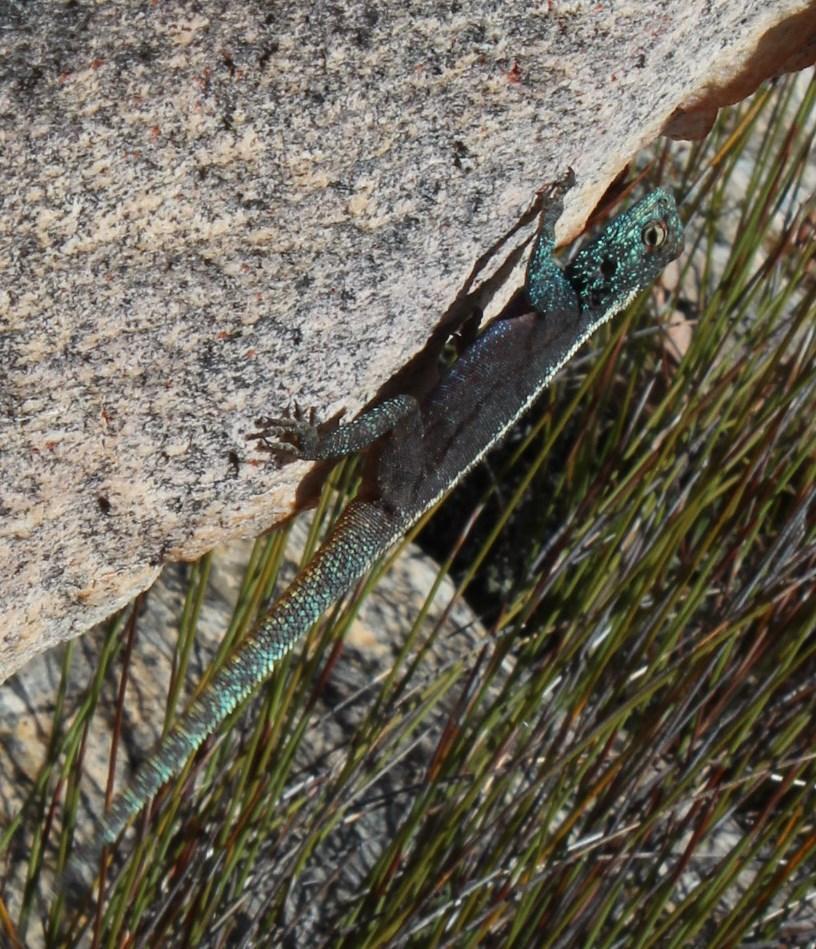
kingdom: Animalia
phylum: Chordata
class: Squamata
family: Agamidae
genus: Agama
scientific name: Agama atra
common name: Southern african rock agama
